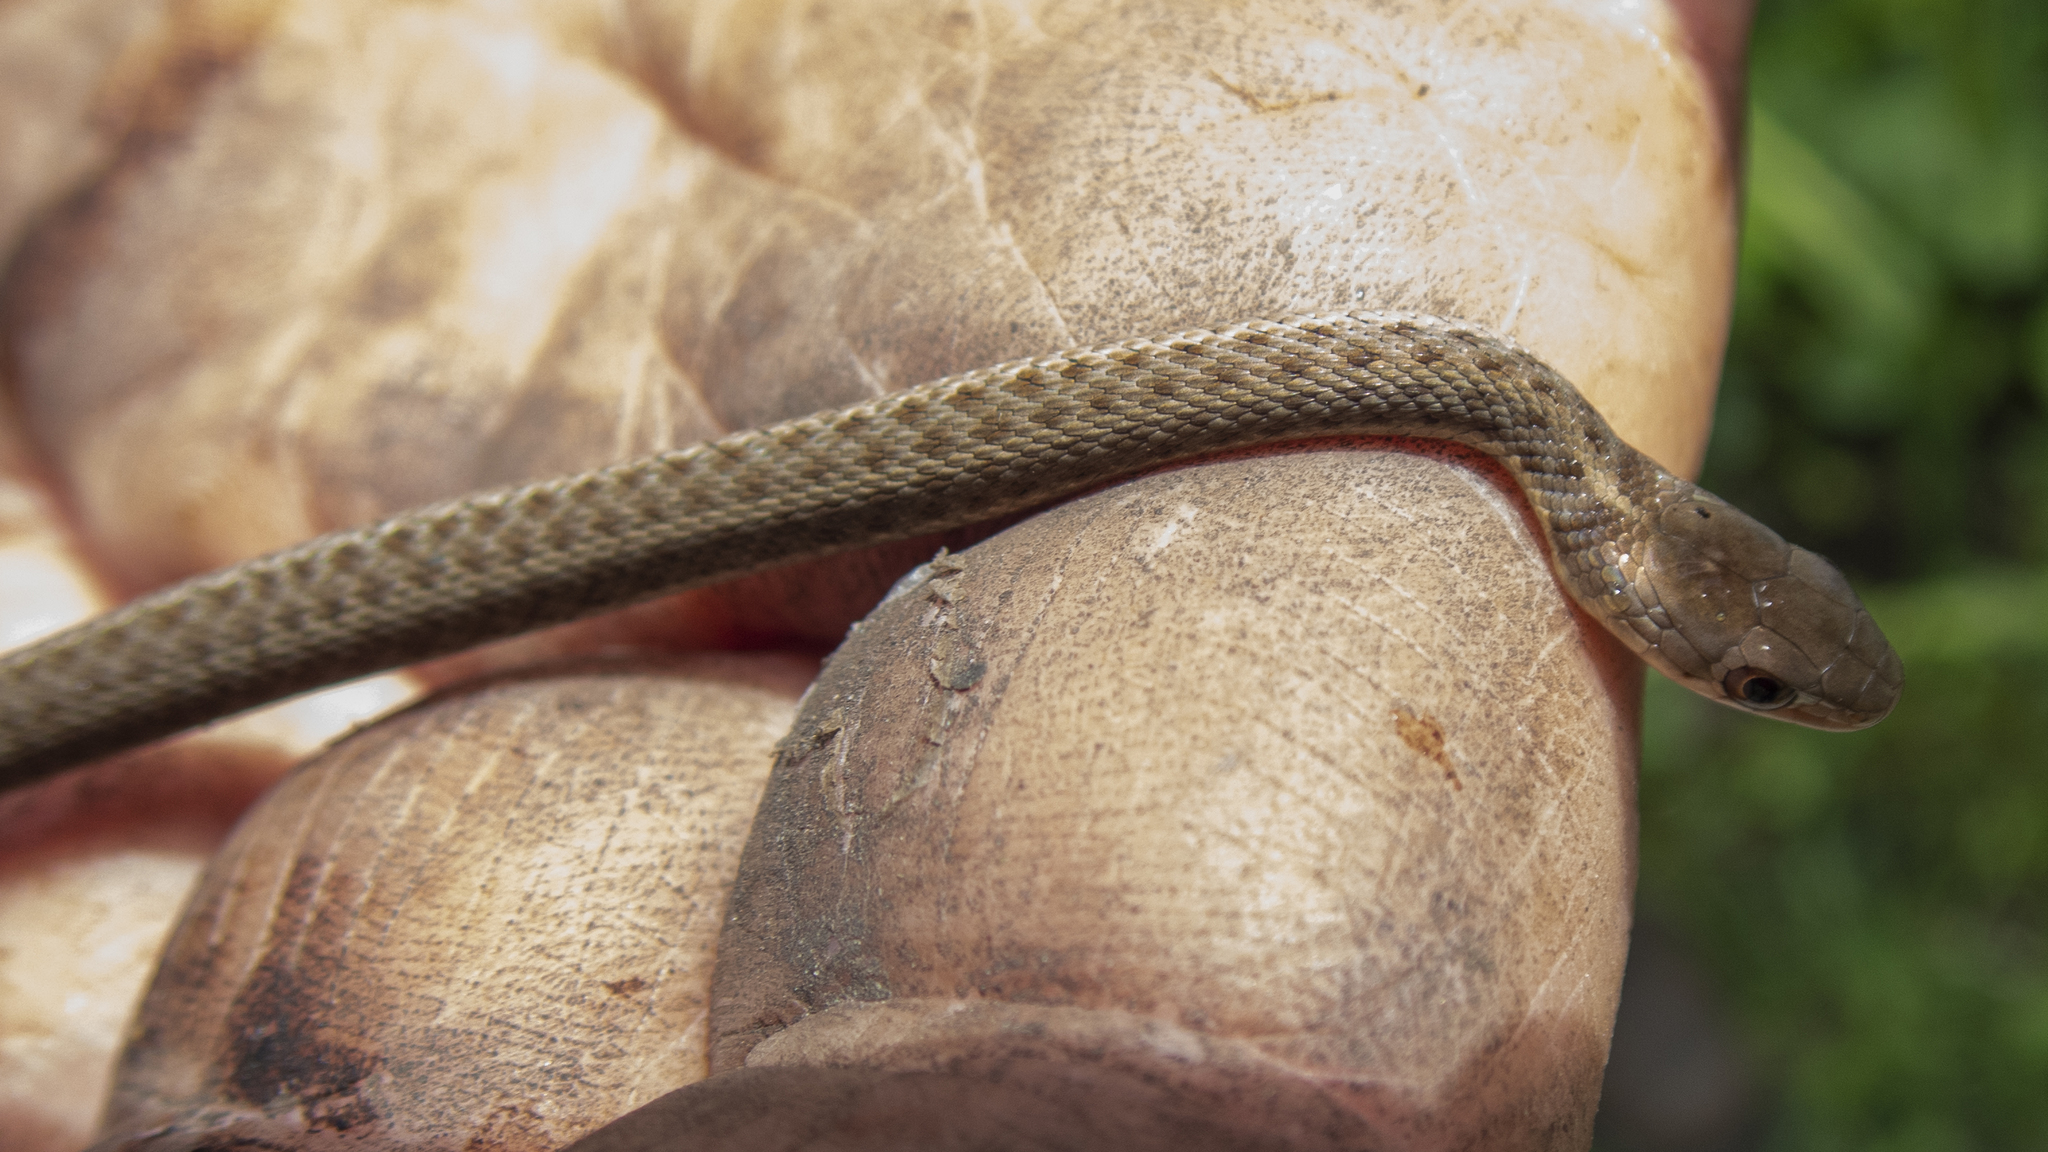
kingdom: Animalia
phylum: Chordata
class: Squamata
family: Colubridae
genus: Thamnophis
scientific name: Thamnophis sirtalis
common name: Common garter snake
